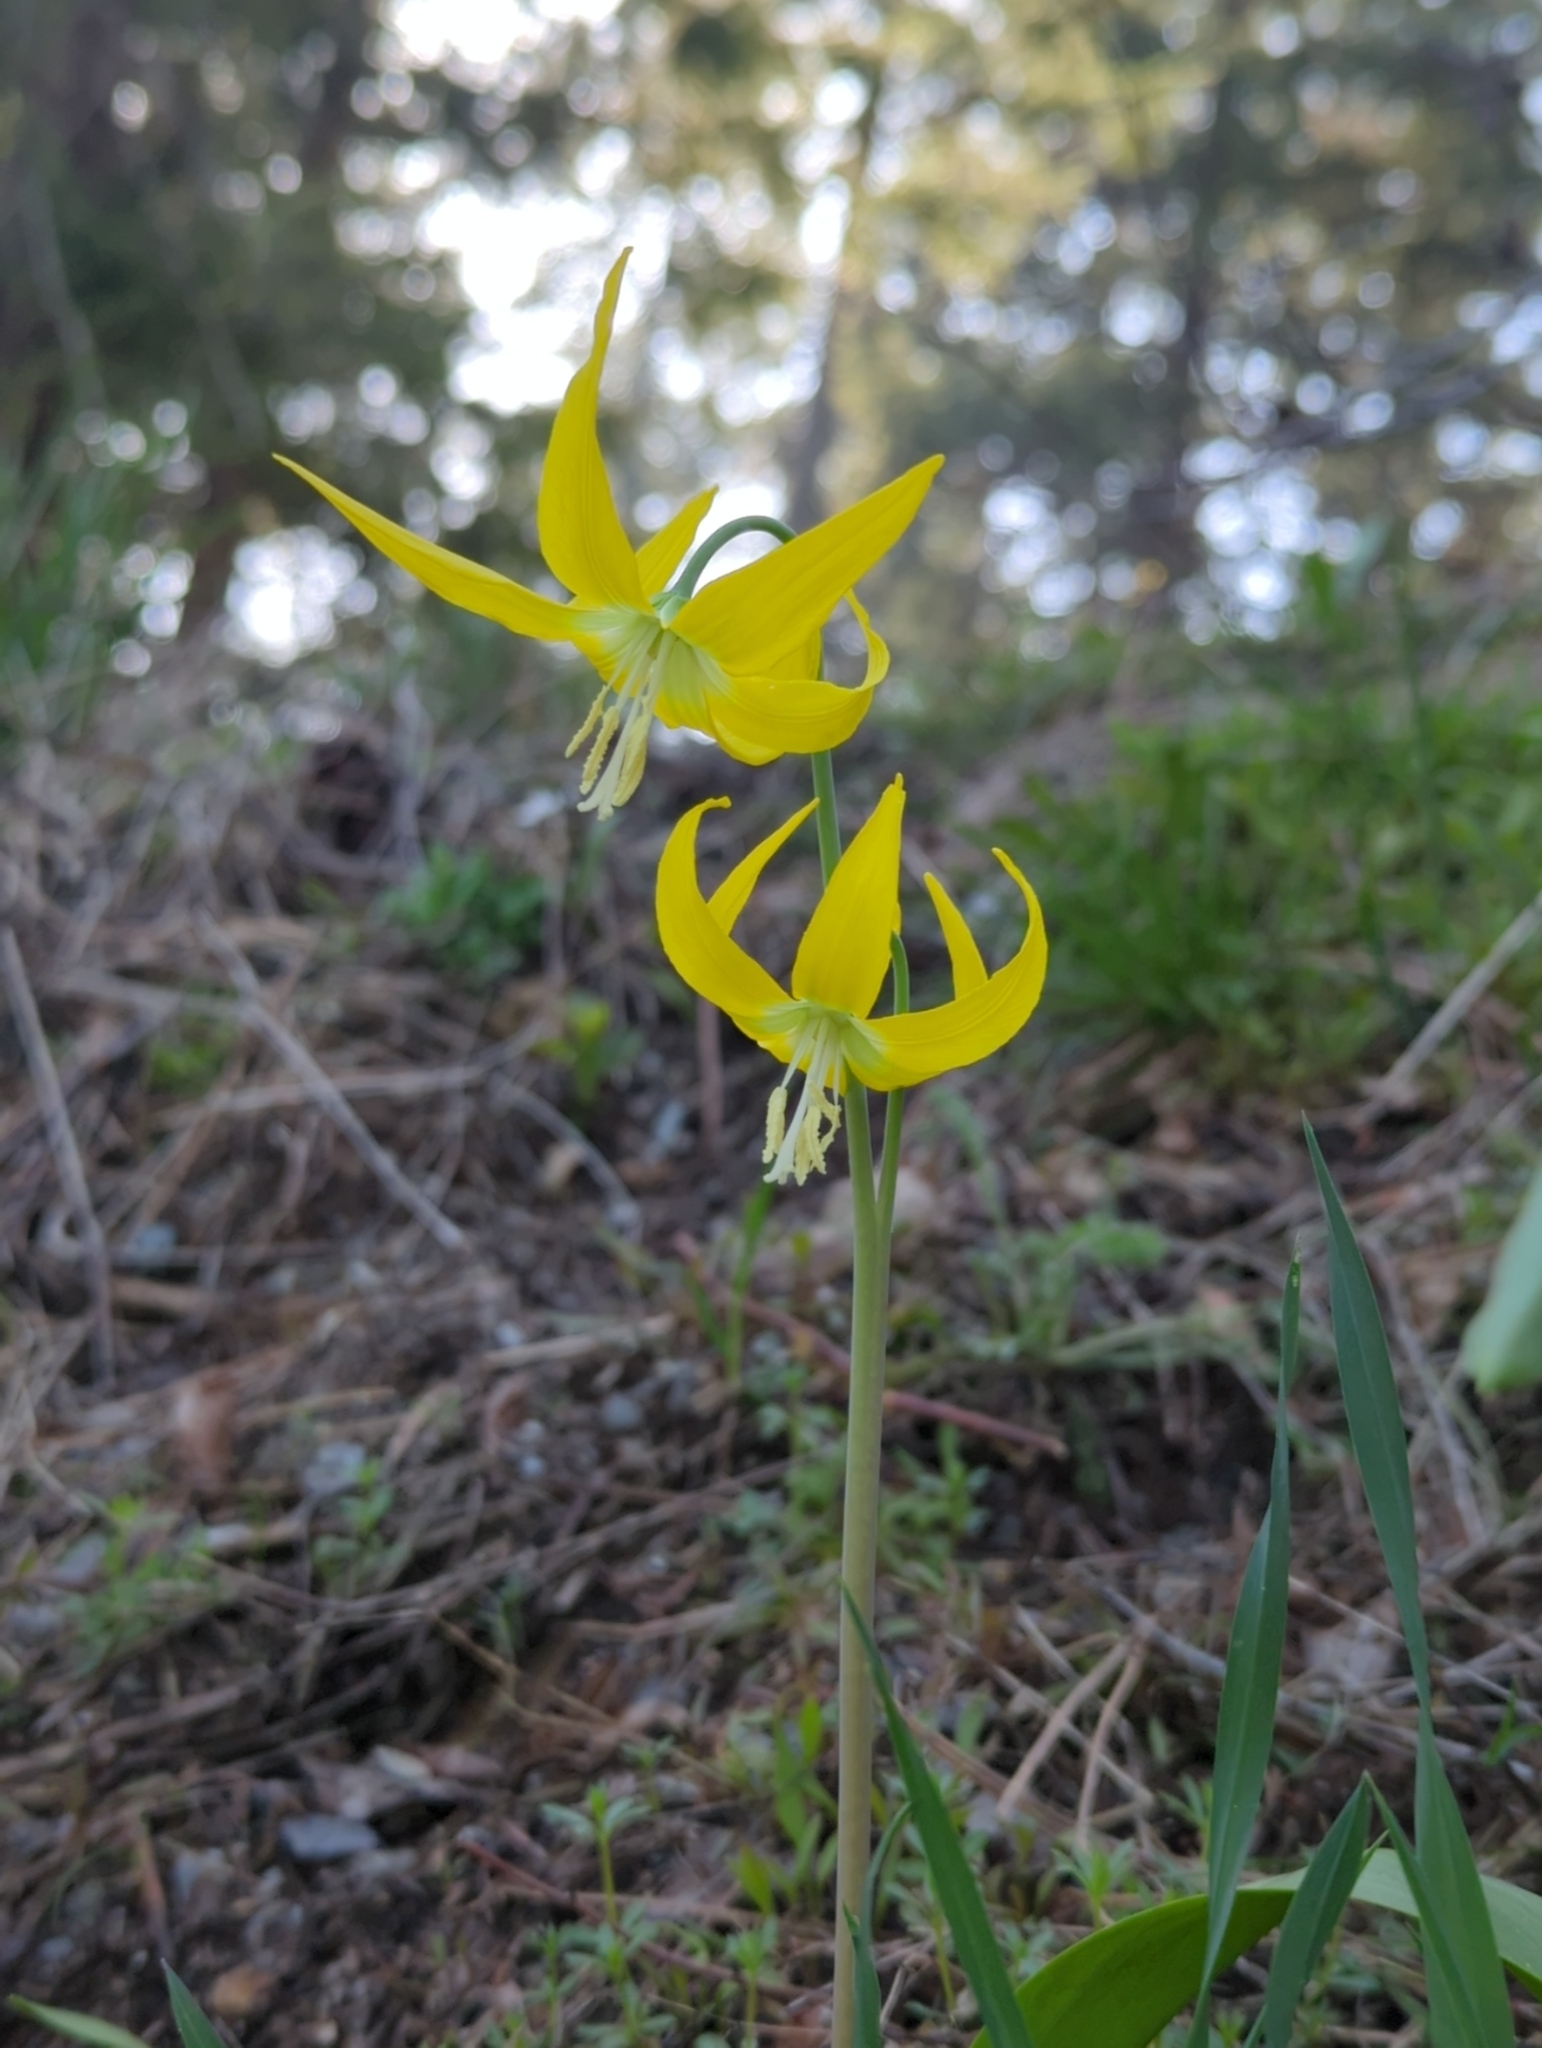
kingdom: Plantae
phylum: Tracheophyta
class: Liliopsida
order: Liliales
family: Liliaceae
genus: Erythronium
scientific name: Erythronium grandiflorum
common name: Avalanche-lily
